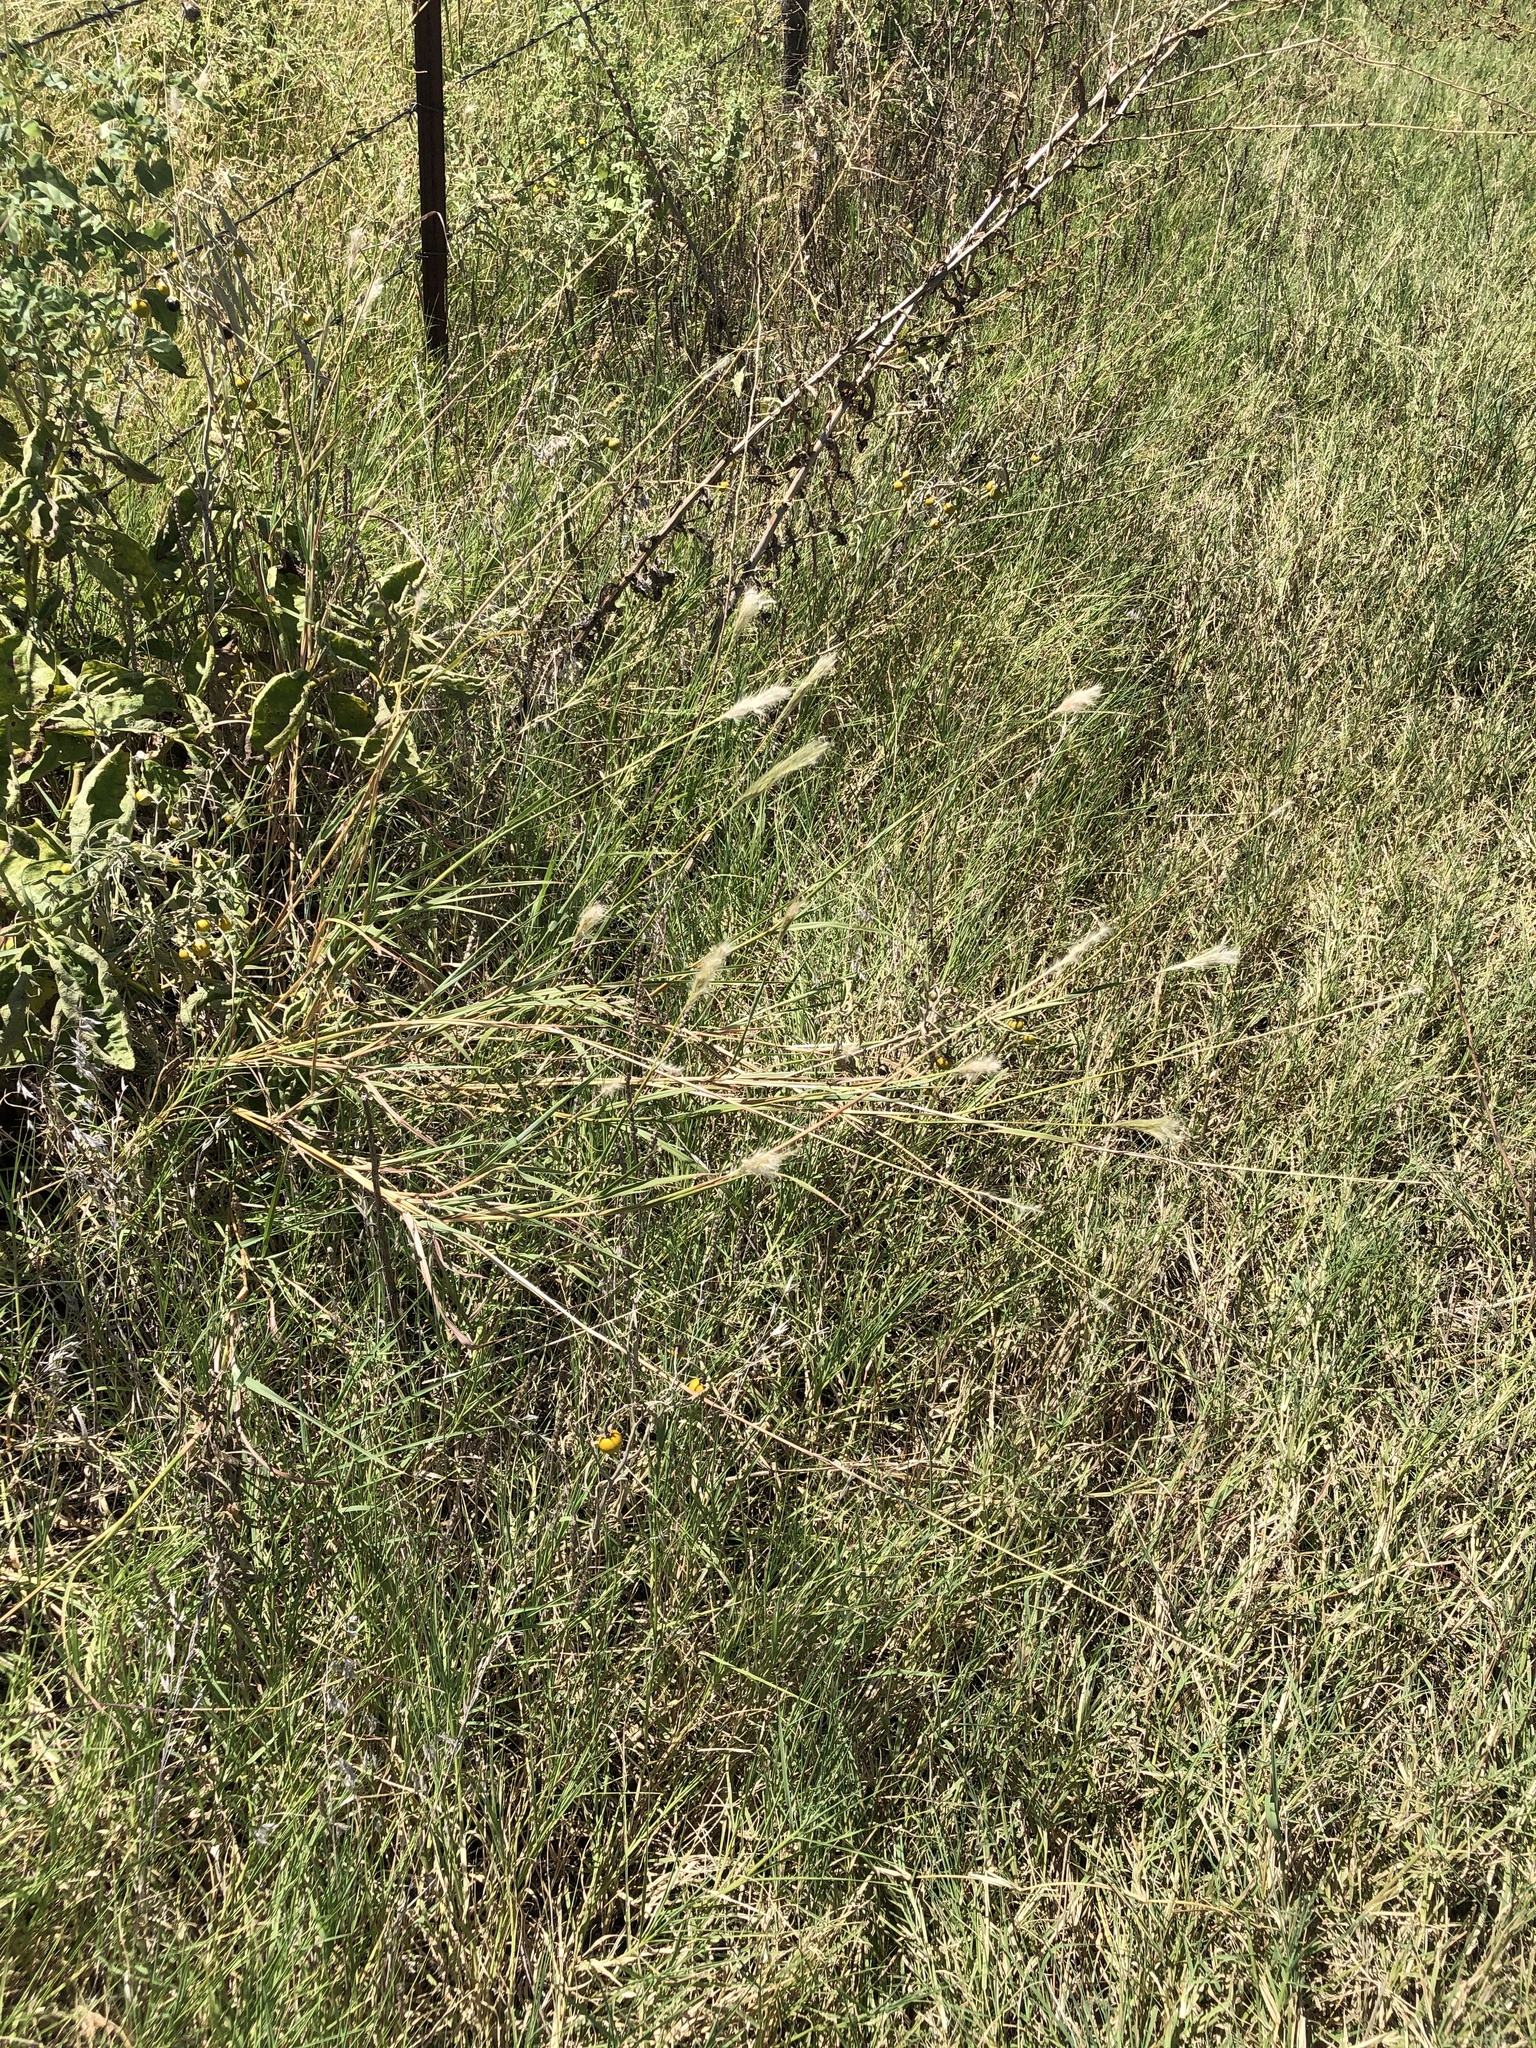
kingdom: Plantae
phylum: Tracheophyta
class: Liliopsida
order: Poales
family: Poaceae
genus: Bothriochloa
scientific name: Bothriochloa torreyana
